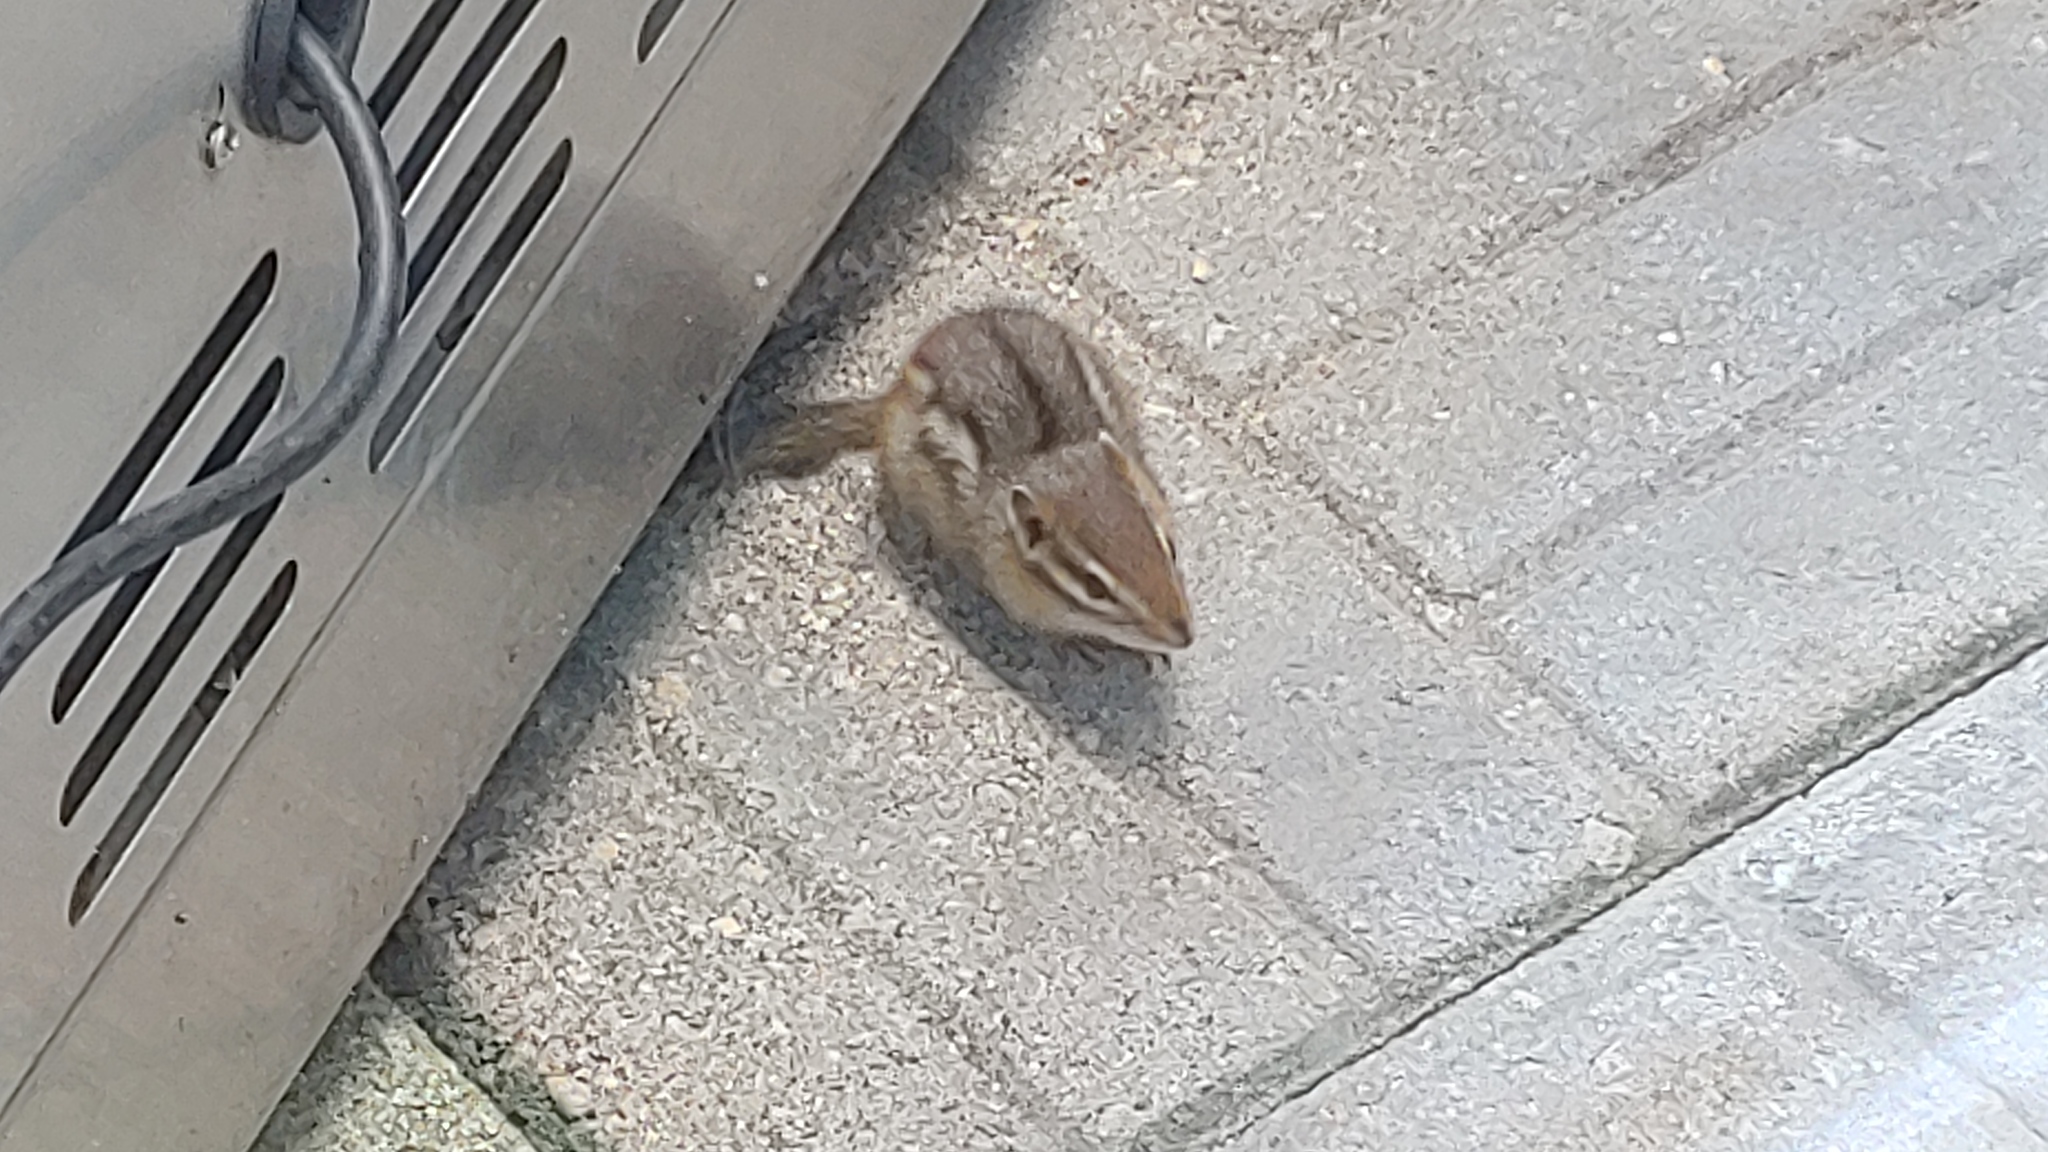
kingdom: Animalia
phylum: Chordata
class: Mammalia
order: Rodentia
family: Sciuridae
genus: Tamias
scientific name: Tamias striatus
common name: Eastern chipmunk
